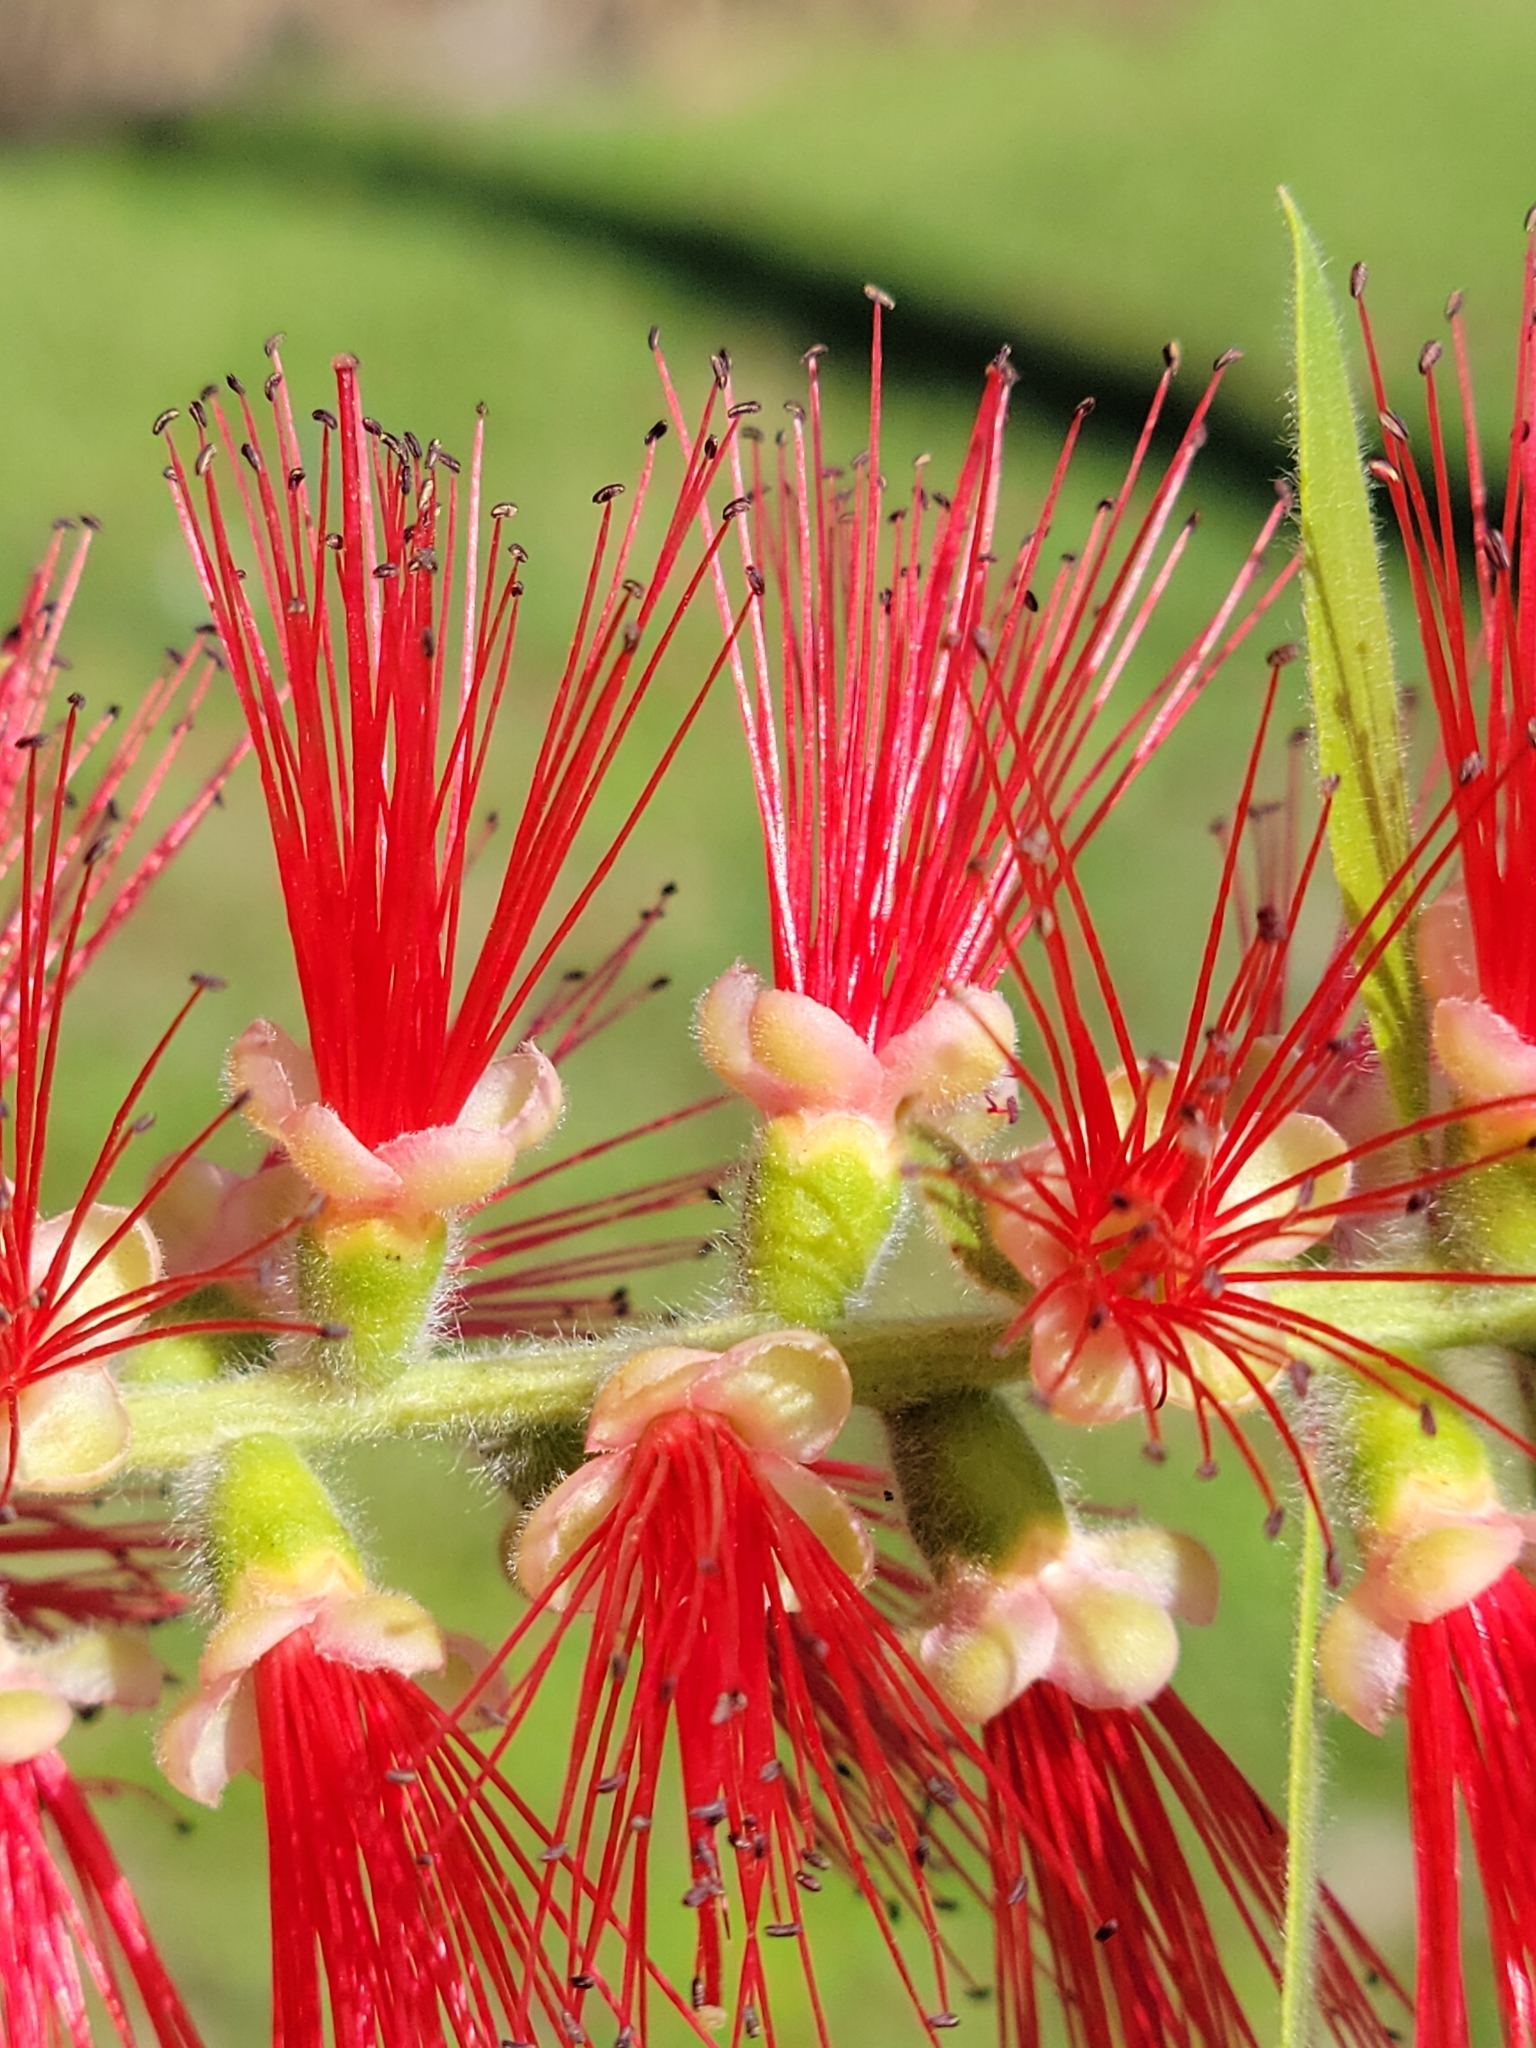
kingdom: Plantae
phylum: Tracheophyta
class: Magnoliopsida
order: Myrtales
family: Myrtaceae
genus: Callistemon
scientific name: Callistemon viminalis
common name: Drooping bottlebrush
